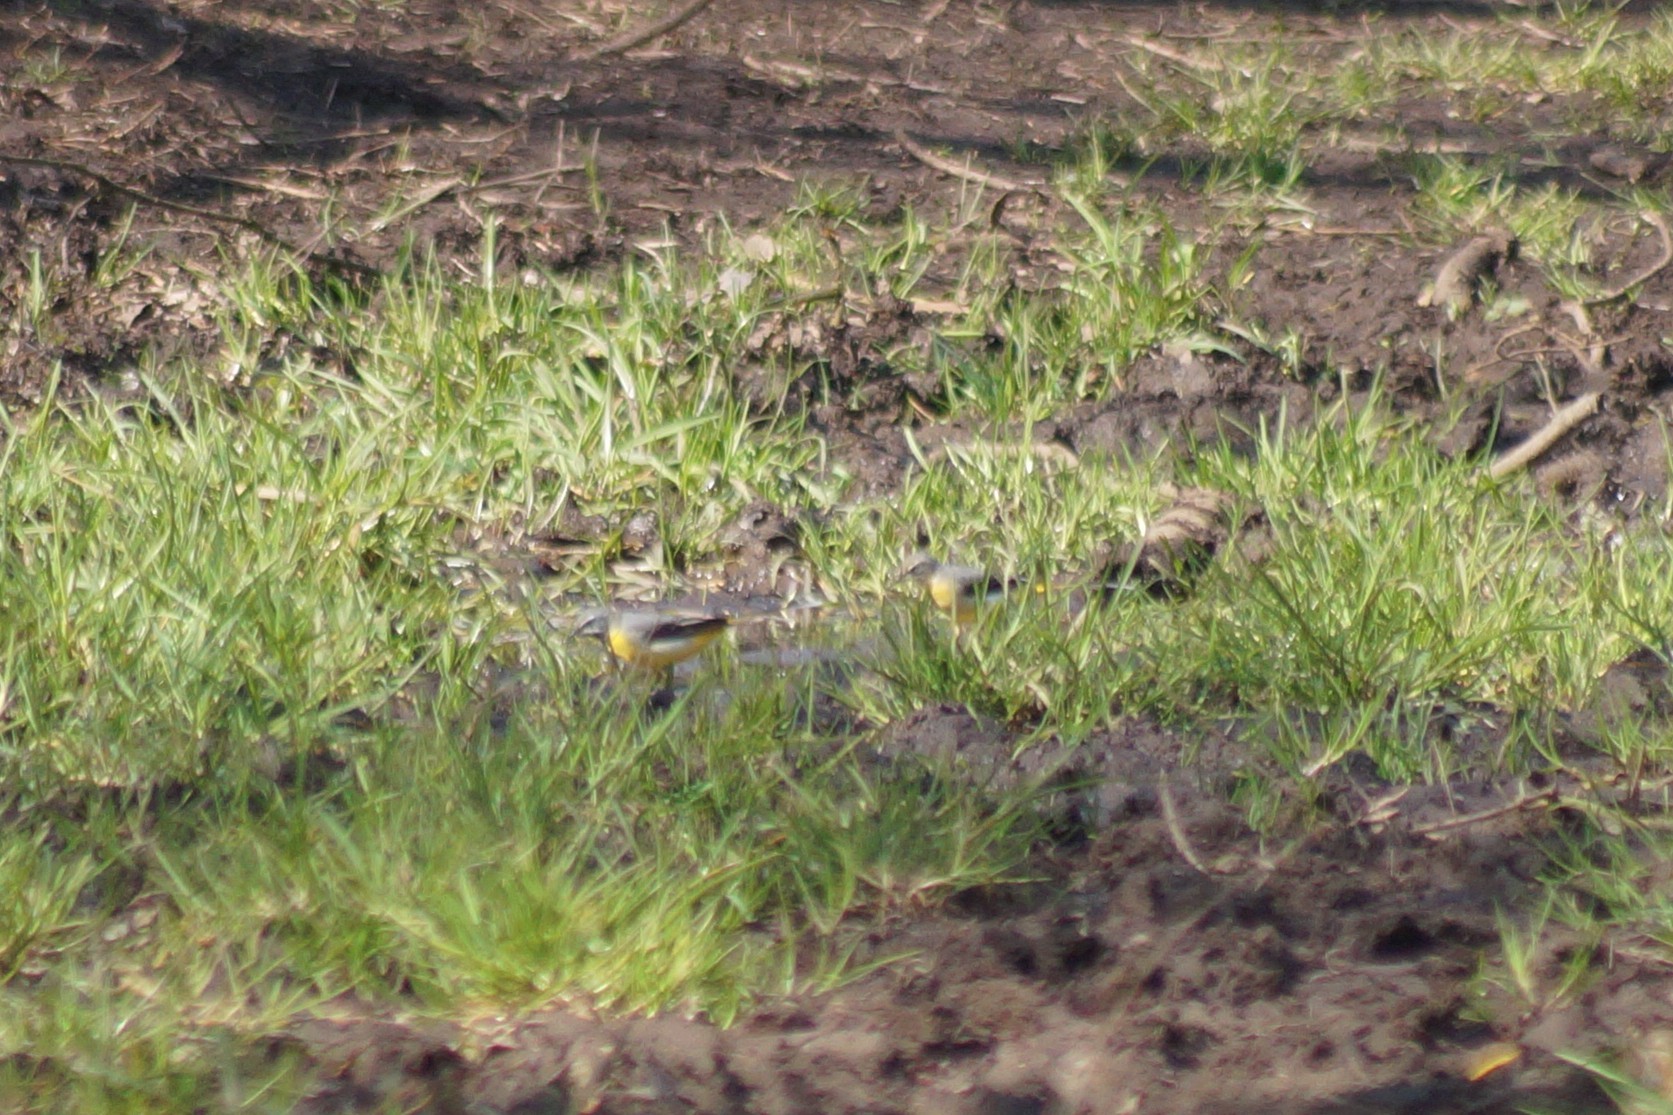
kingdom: Animalia
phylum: Chordata
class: Aves
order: Passeriformes
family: Motacillidae
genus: Motacilla
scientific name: Motacilla cinerea
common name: Grey wagtail
